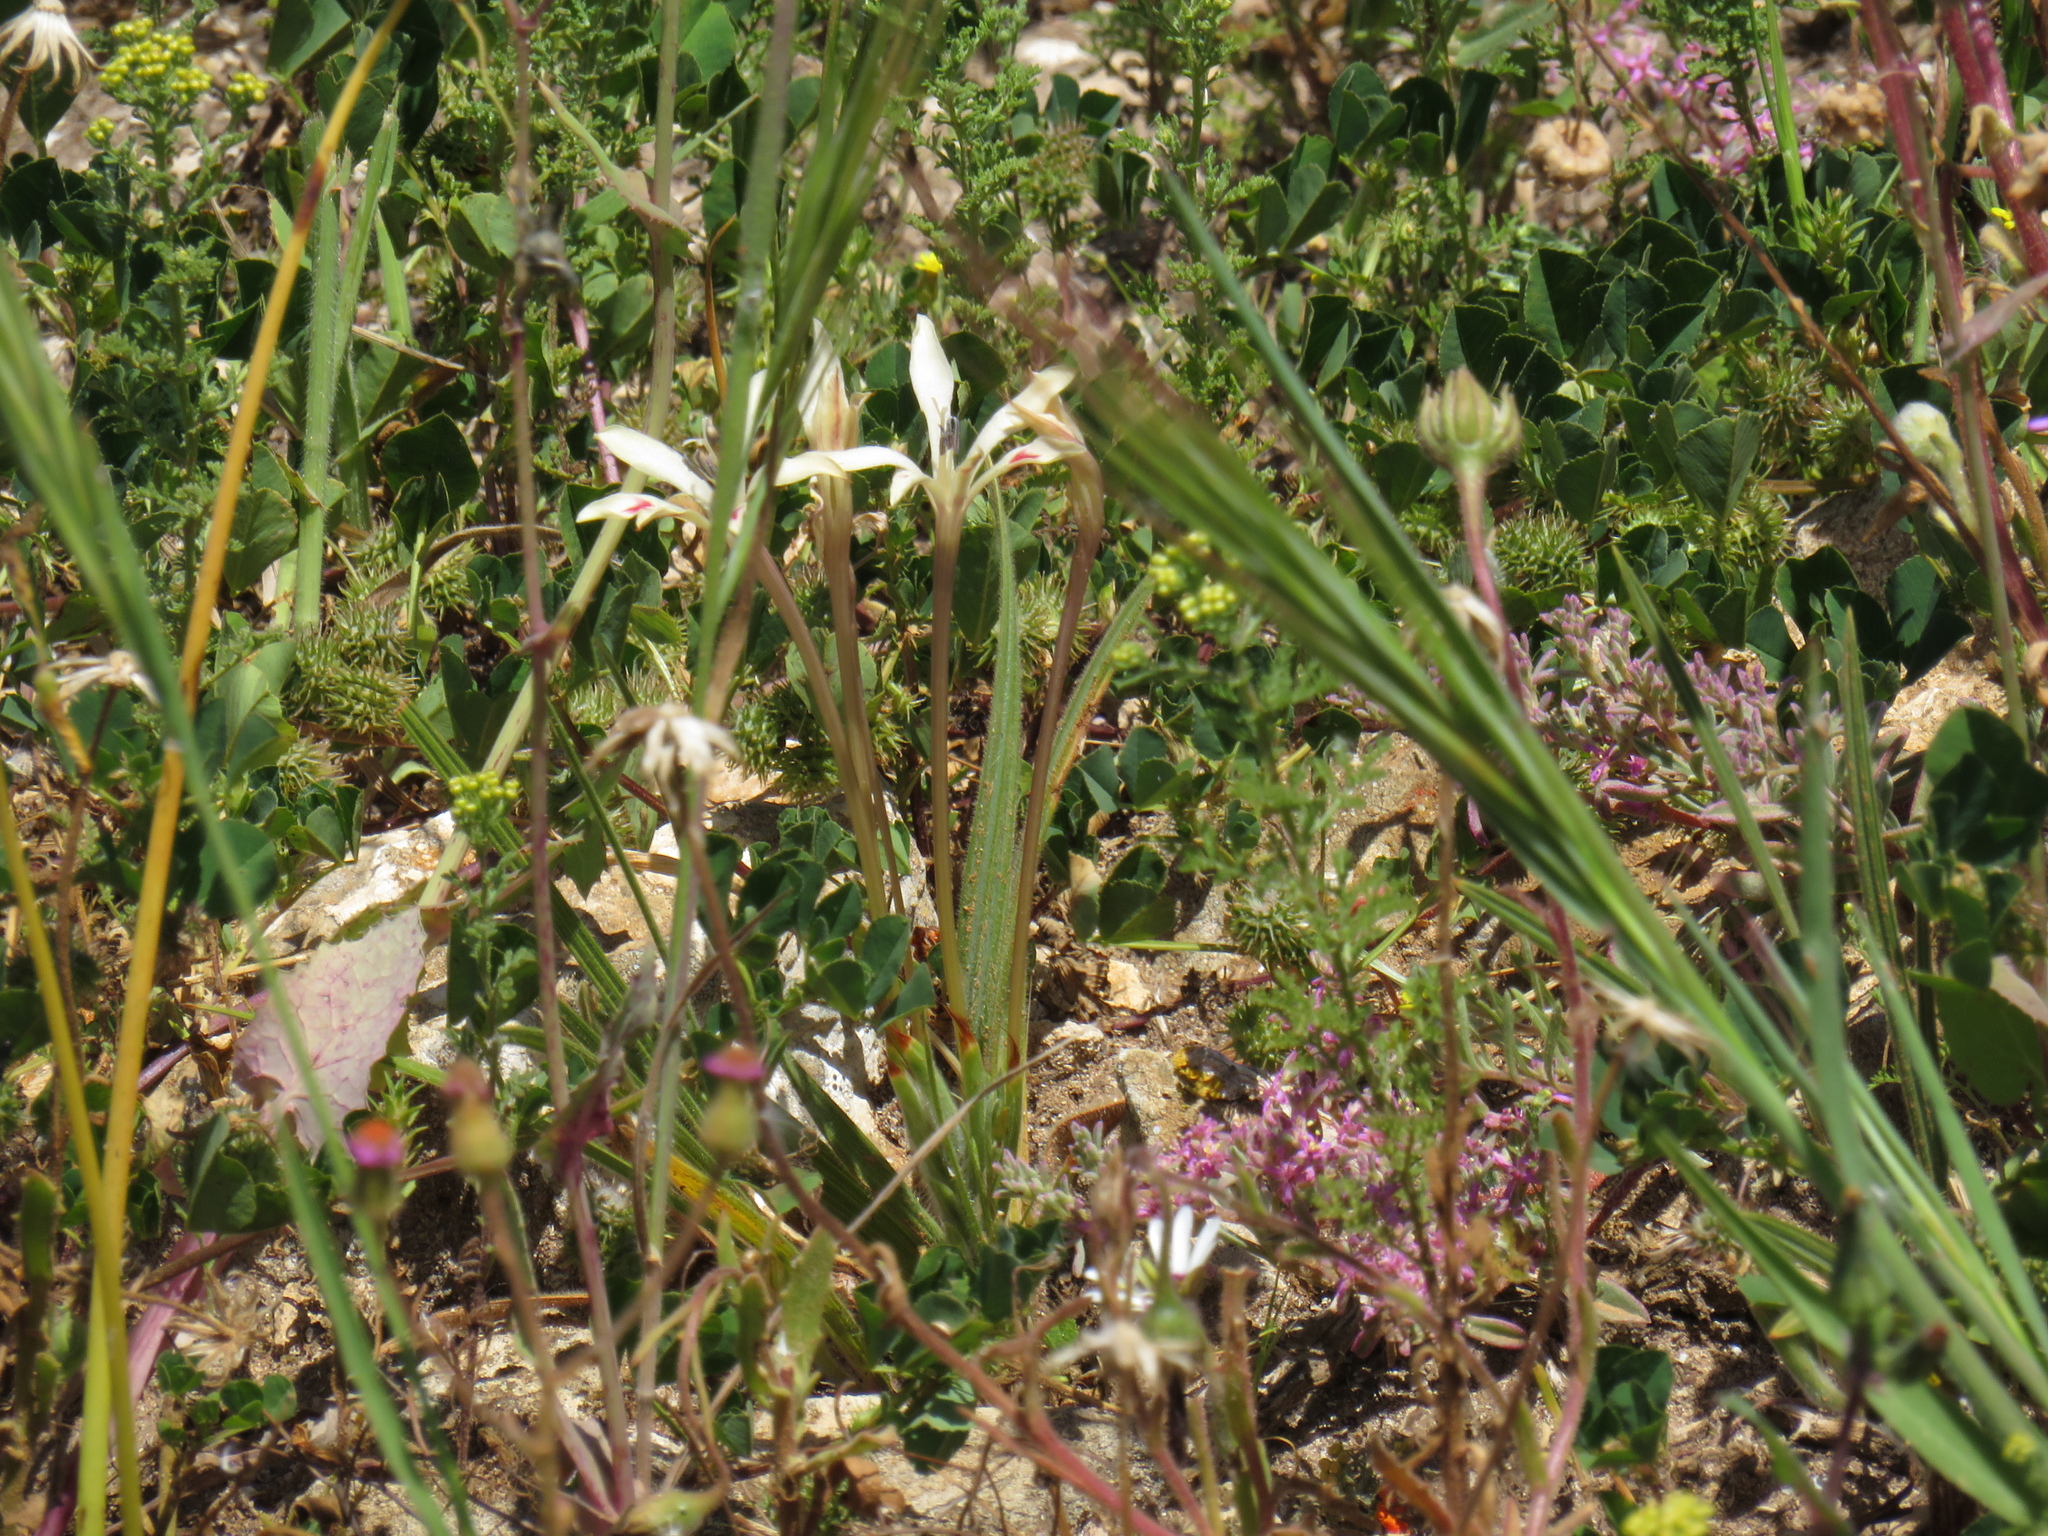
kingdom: Plantae
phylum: Tracheophyta
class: Liliopsida
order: Asparagales
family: Iridaceae
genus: Babiana
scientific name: Babiana tubiflora
